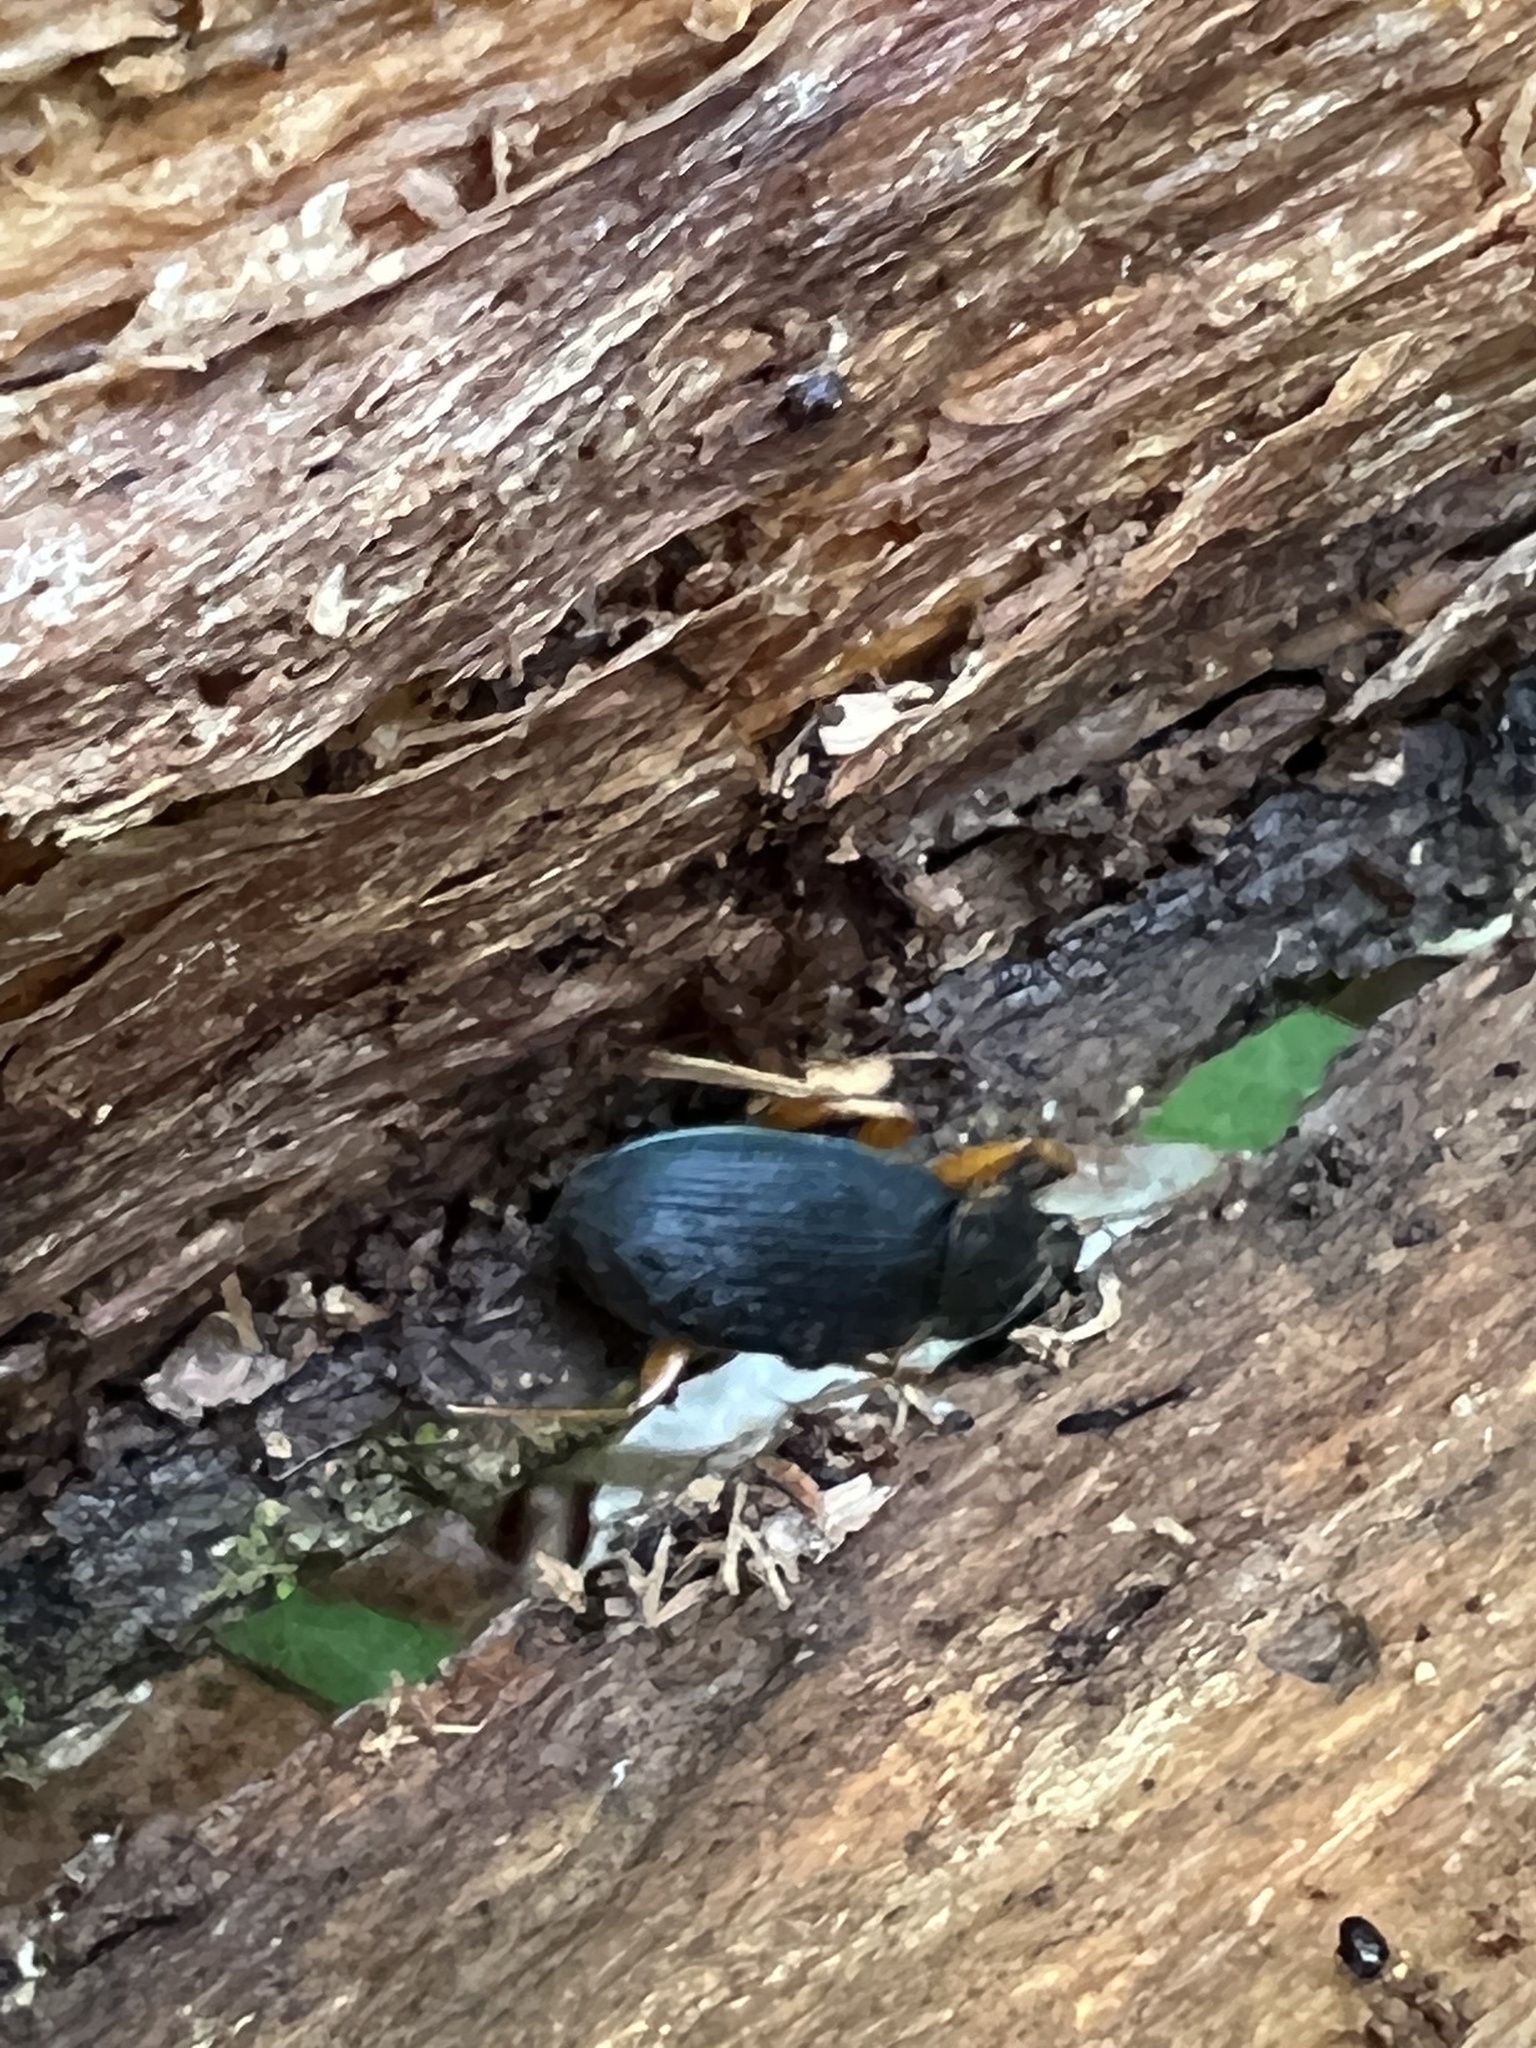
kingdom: Animalia
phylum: Arthropoda
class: Insecta
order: Coleoptera
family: Carabidae
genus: Chlaenius
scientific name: Chlaenius aestivus
